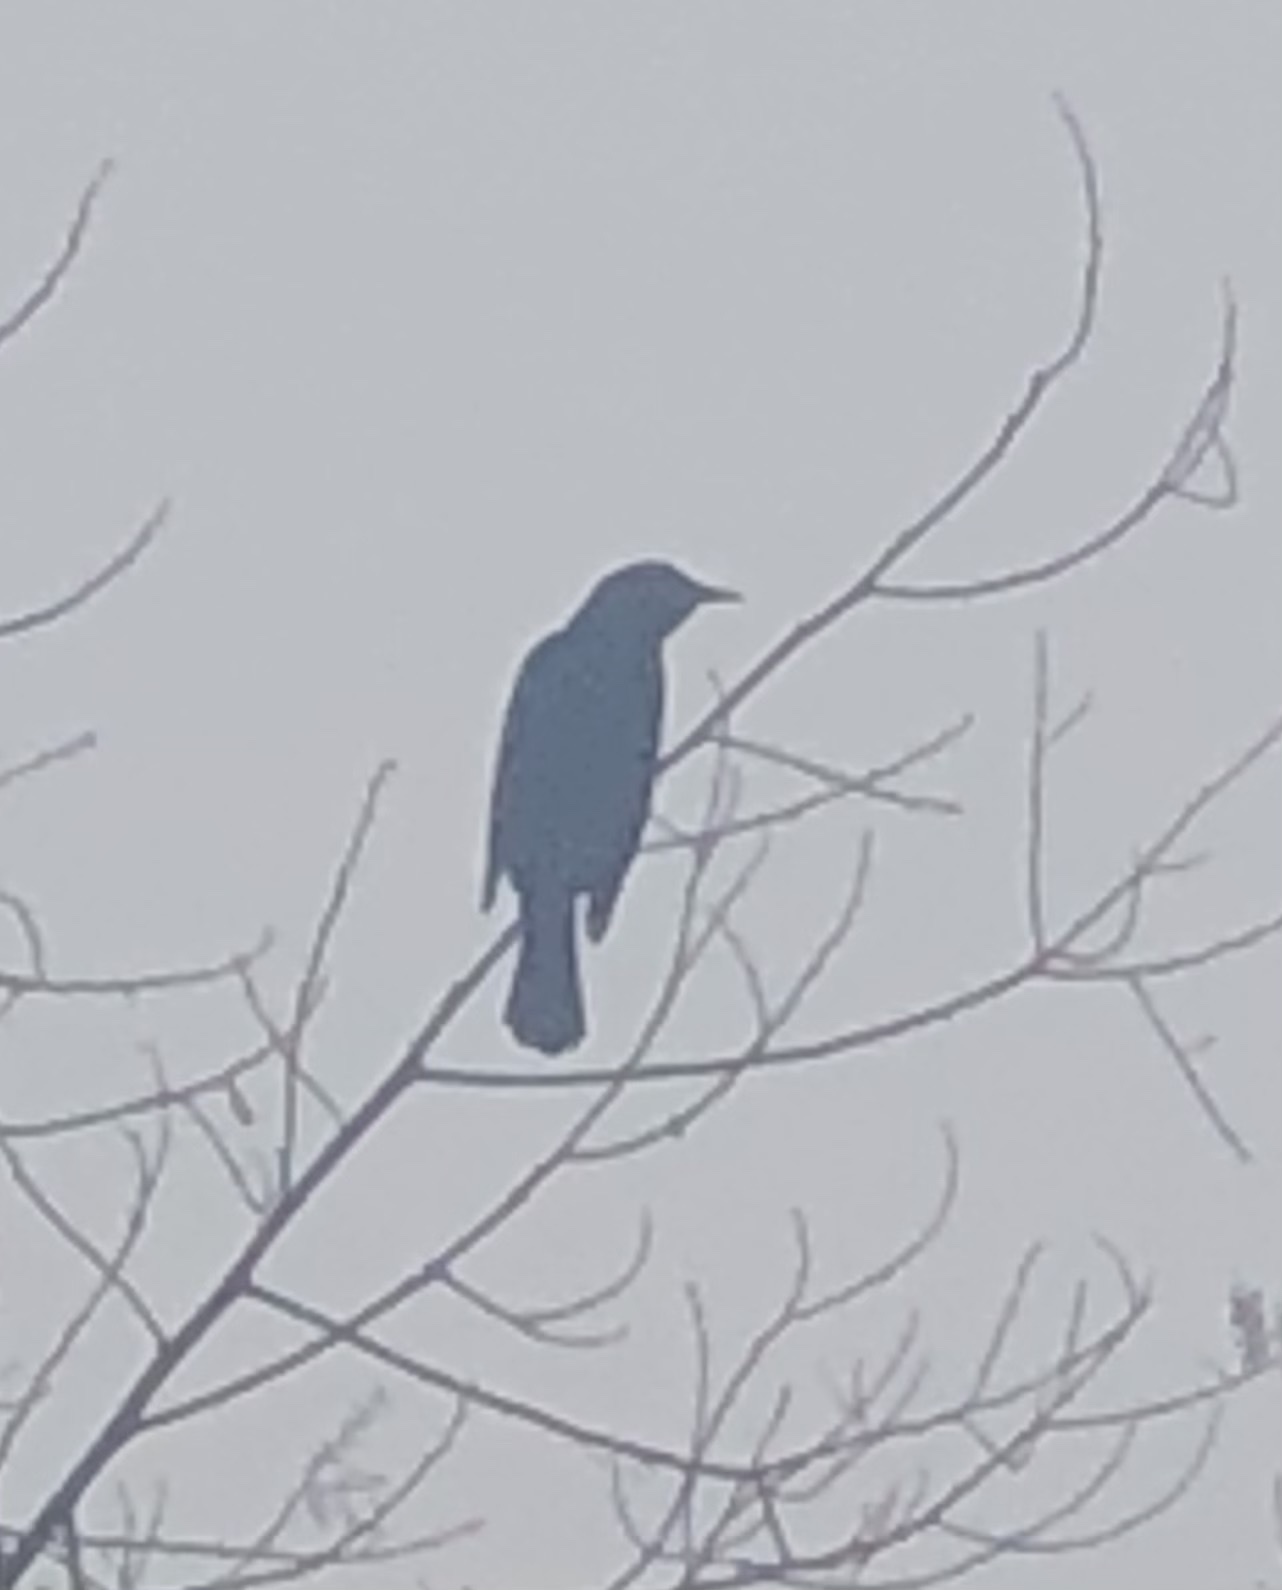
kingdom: Animalia
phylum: Chordata
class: Aves
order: Passeriformes
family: Icteridae
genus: Curaeus
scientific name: Curaeus curaeus
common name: Austral blackbird
